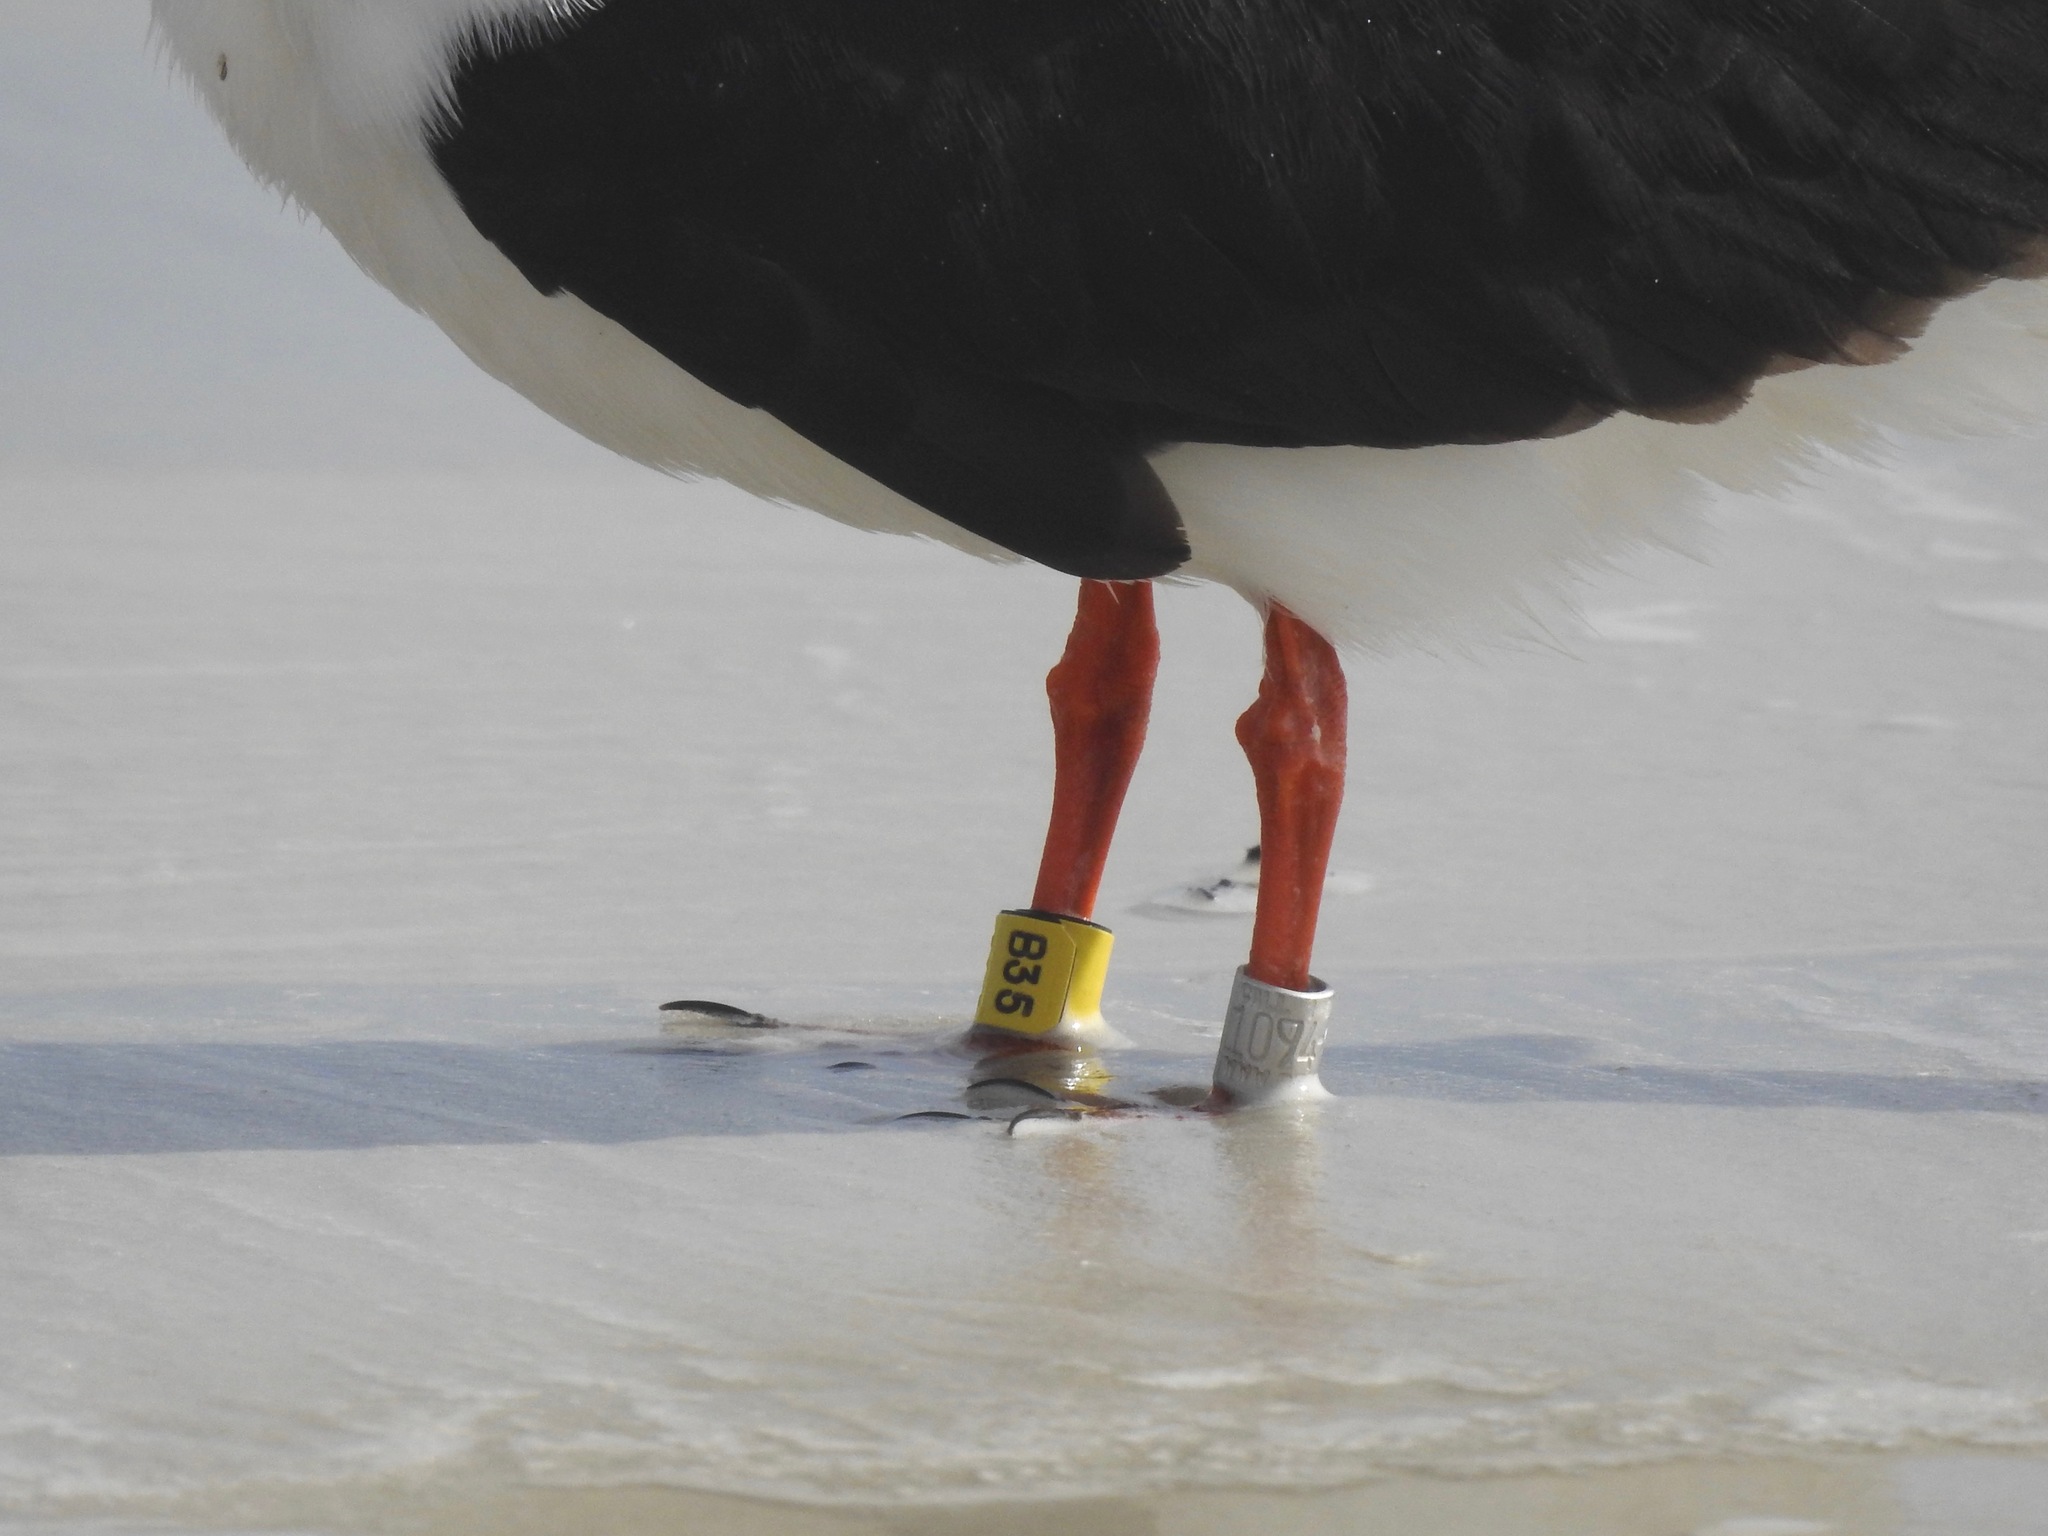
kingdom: Animalia
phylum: Chordata
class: Aves
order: Charadriiformes
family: Laridae
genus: Rynchops
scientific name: Rynchops niger
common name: Black skimmer
